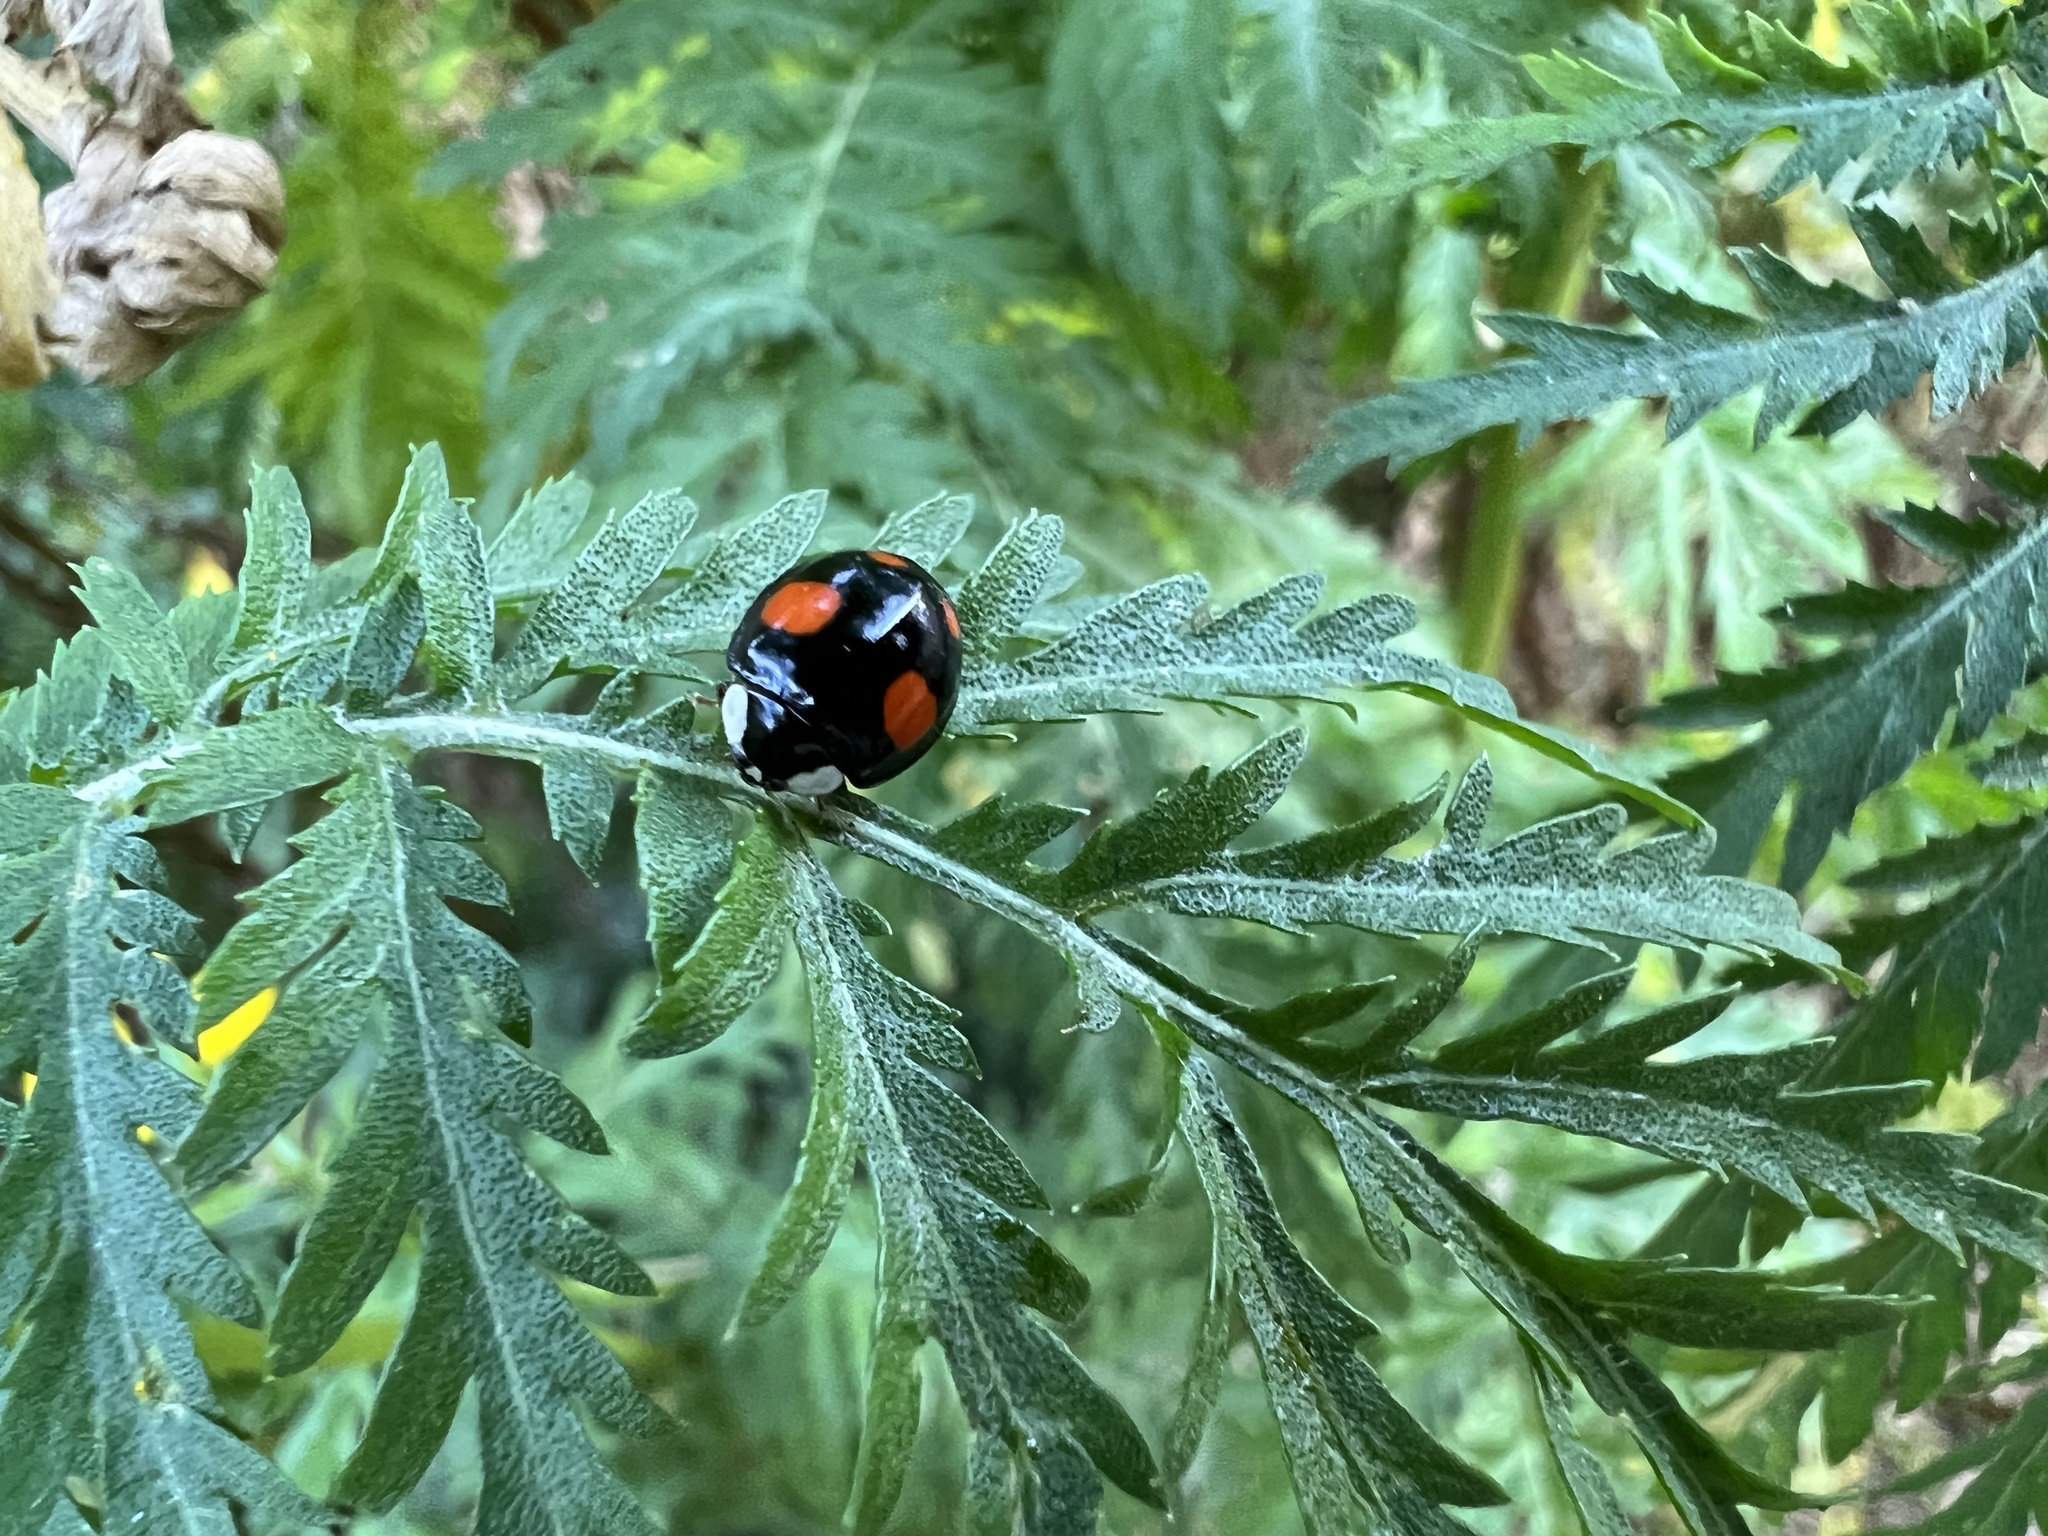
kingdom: Animalia
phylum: Arthropoda
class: Insecta
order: Coleoptera
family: Coccinellidae
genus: Harmonia
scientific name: Harmonia axyridis
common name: Harlequin ladybird
